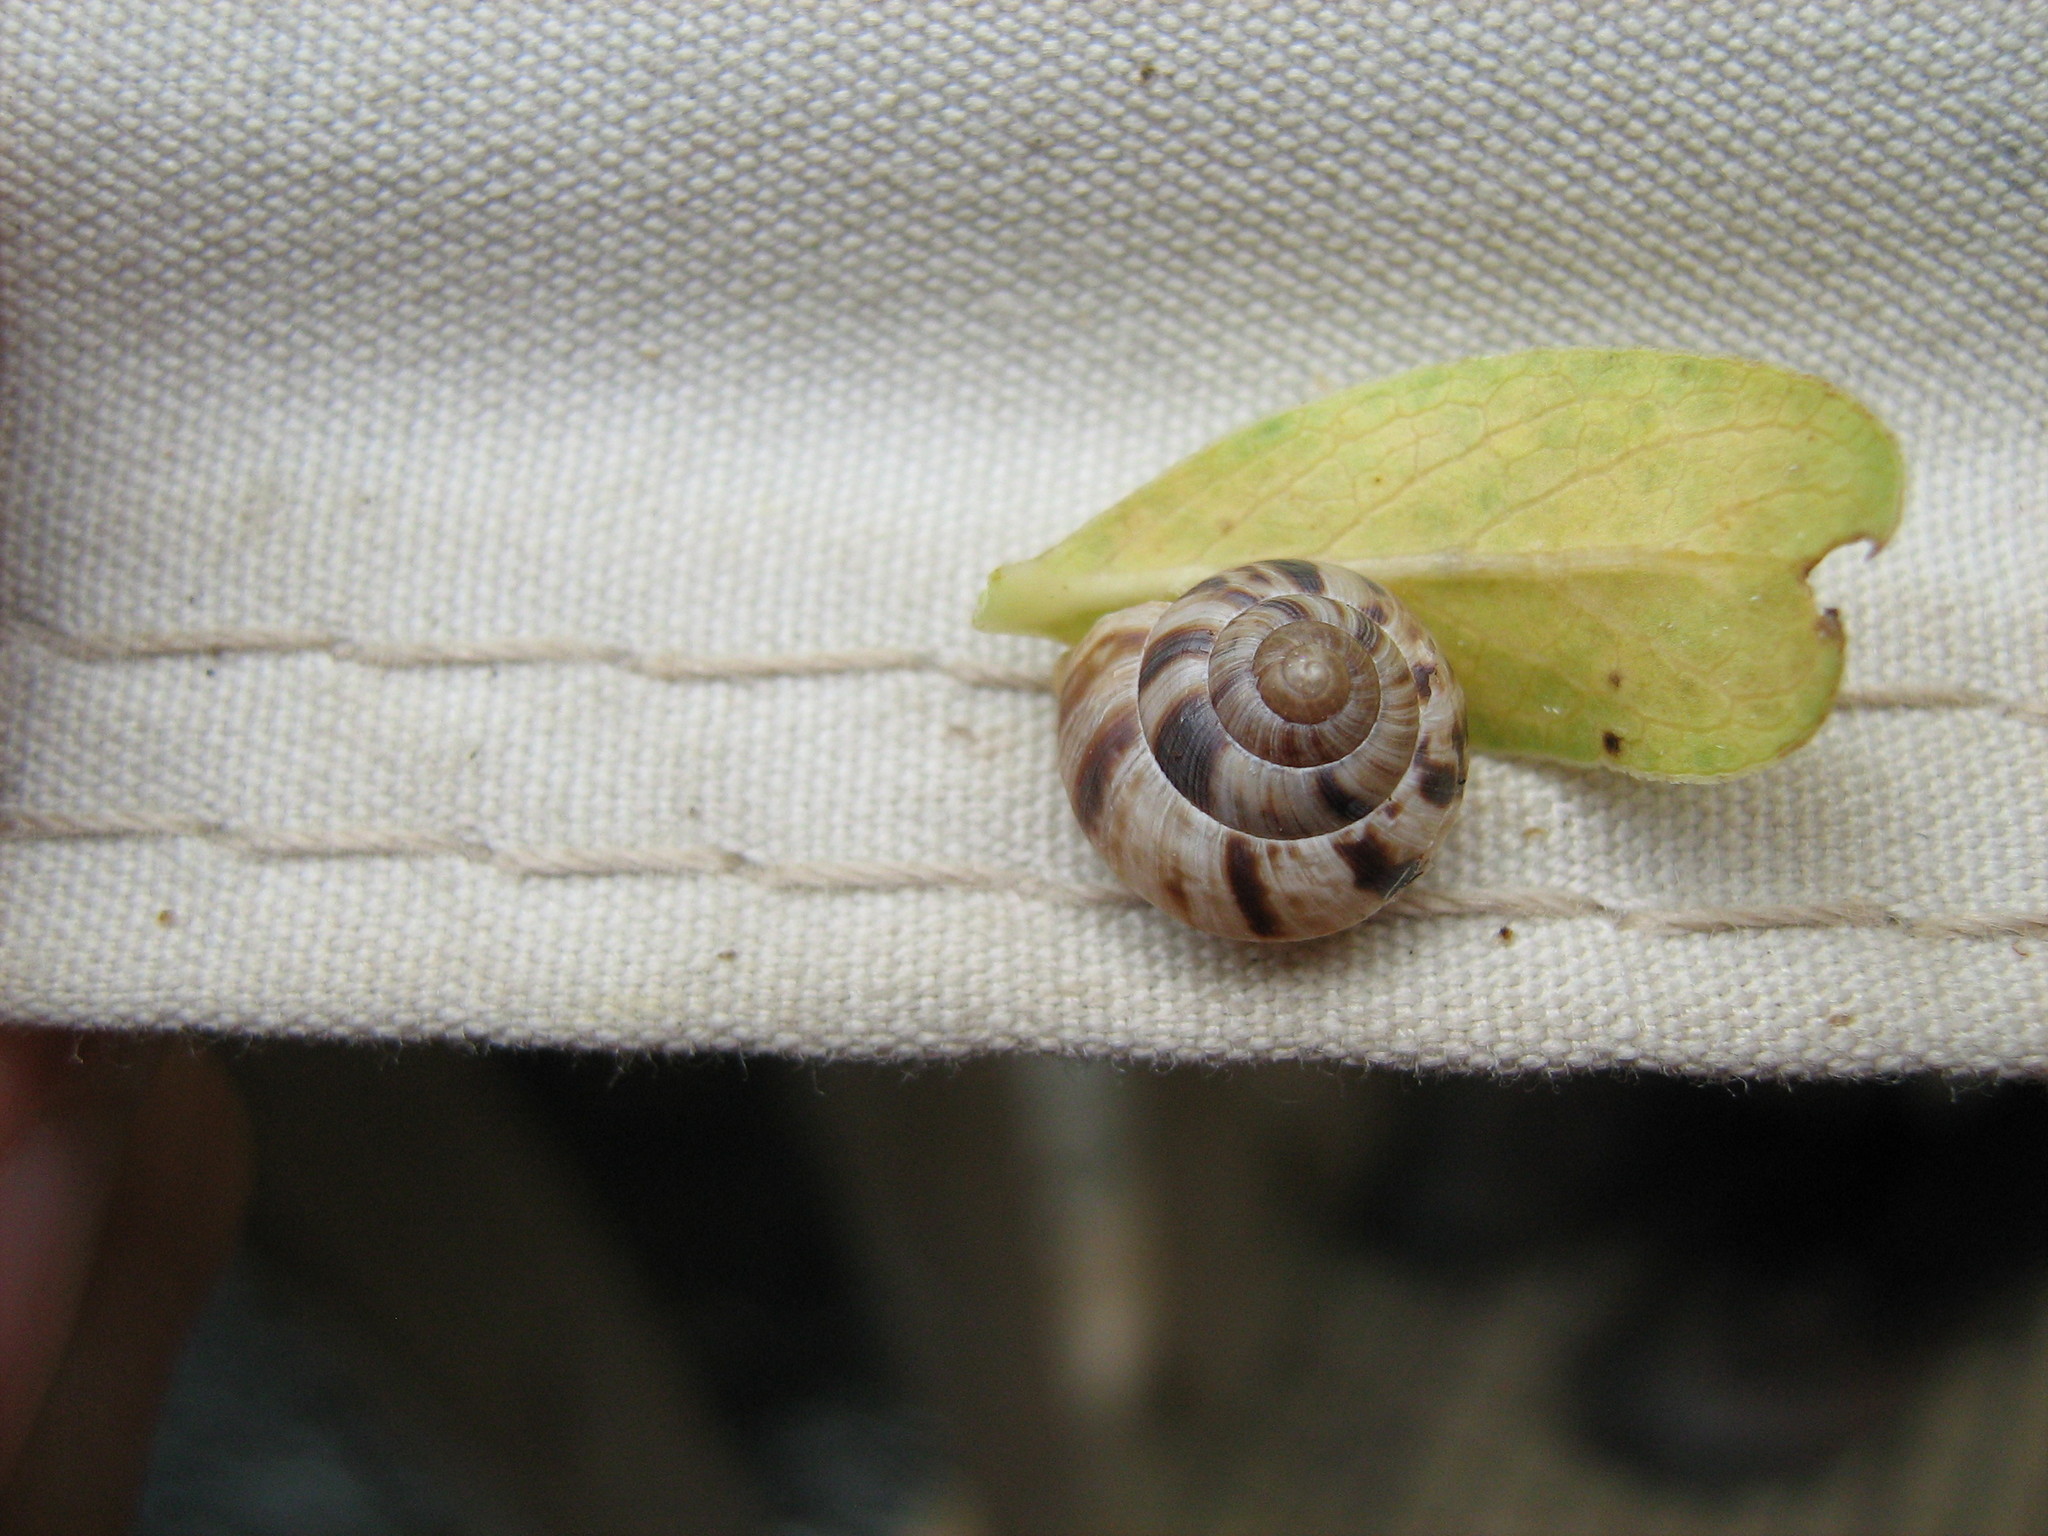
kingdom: Animalia
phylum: Mollusca
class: Gastropoda
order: Stylommatophora
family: Charopidae
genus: Serpho
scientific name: Serpho
